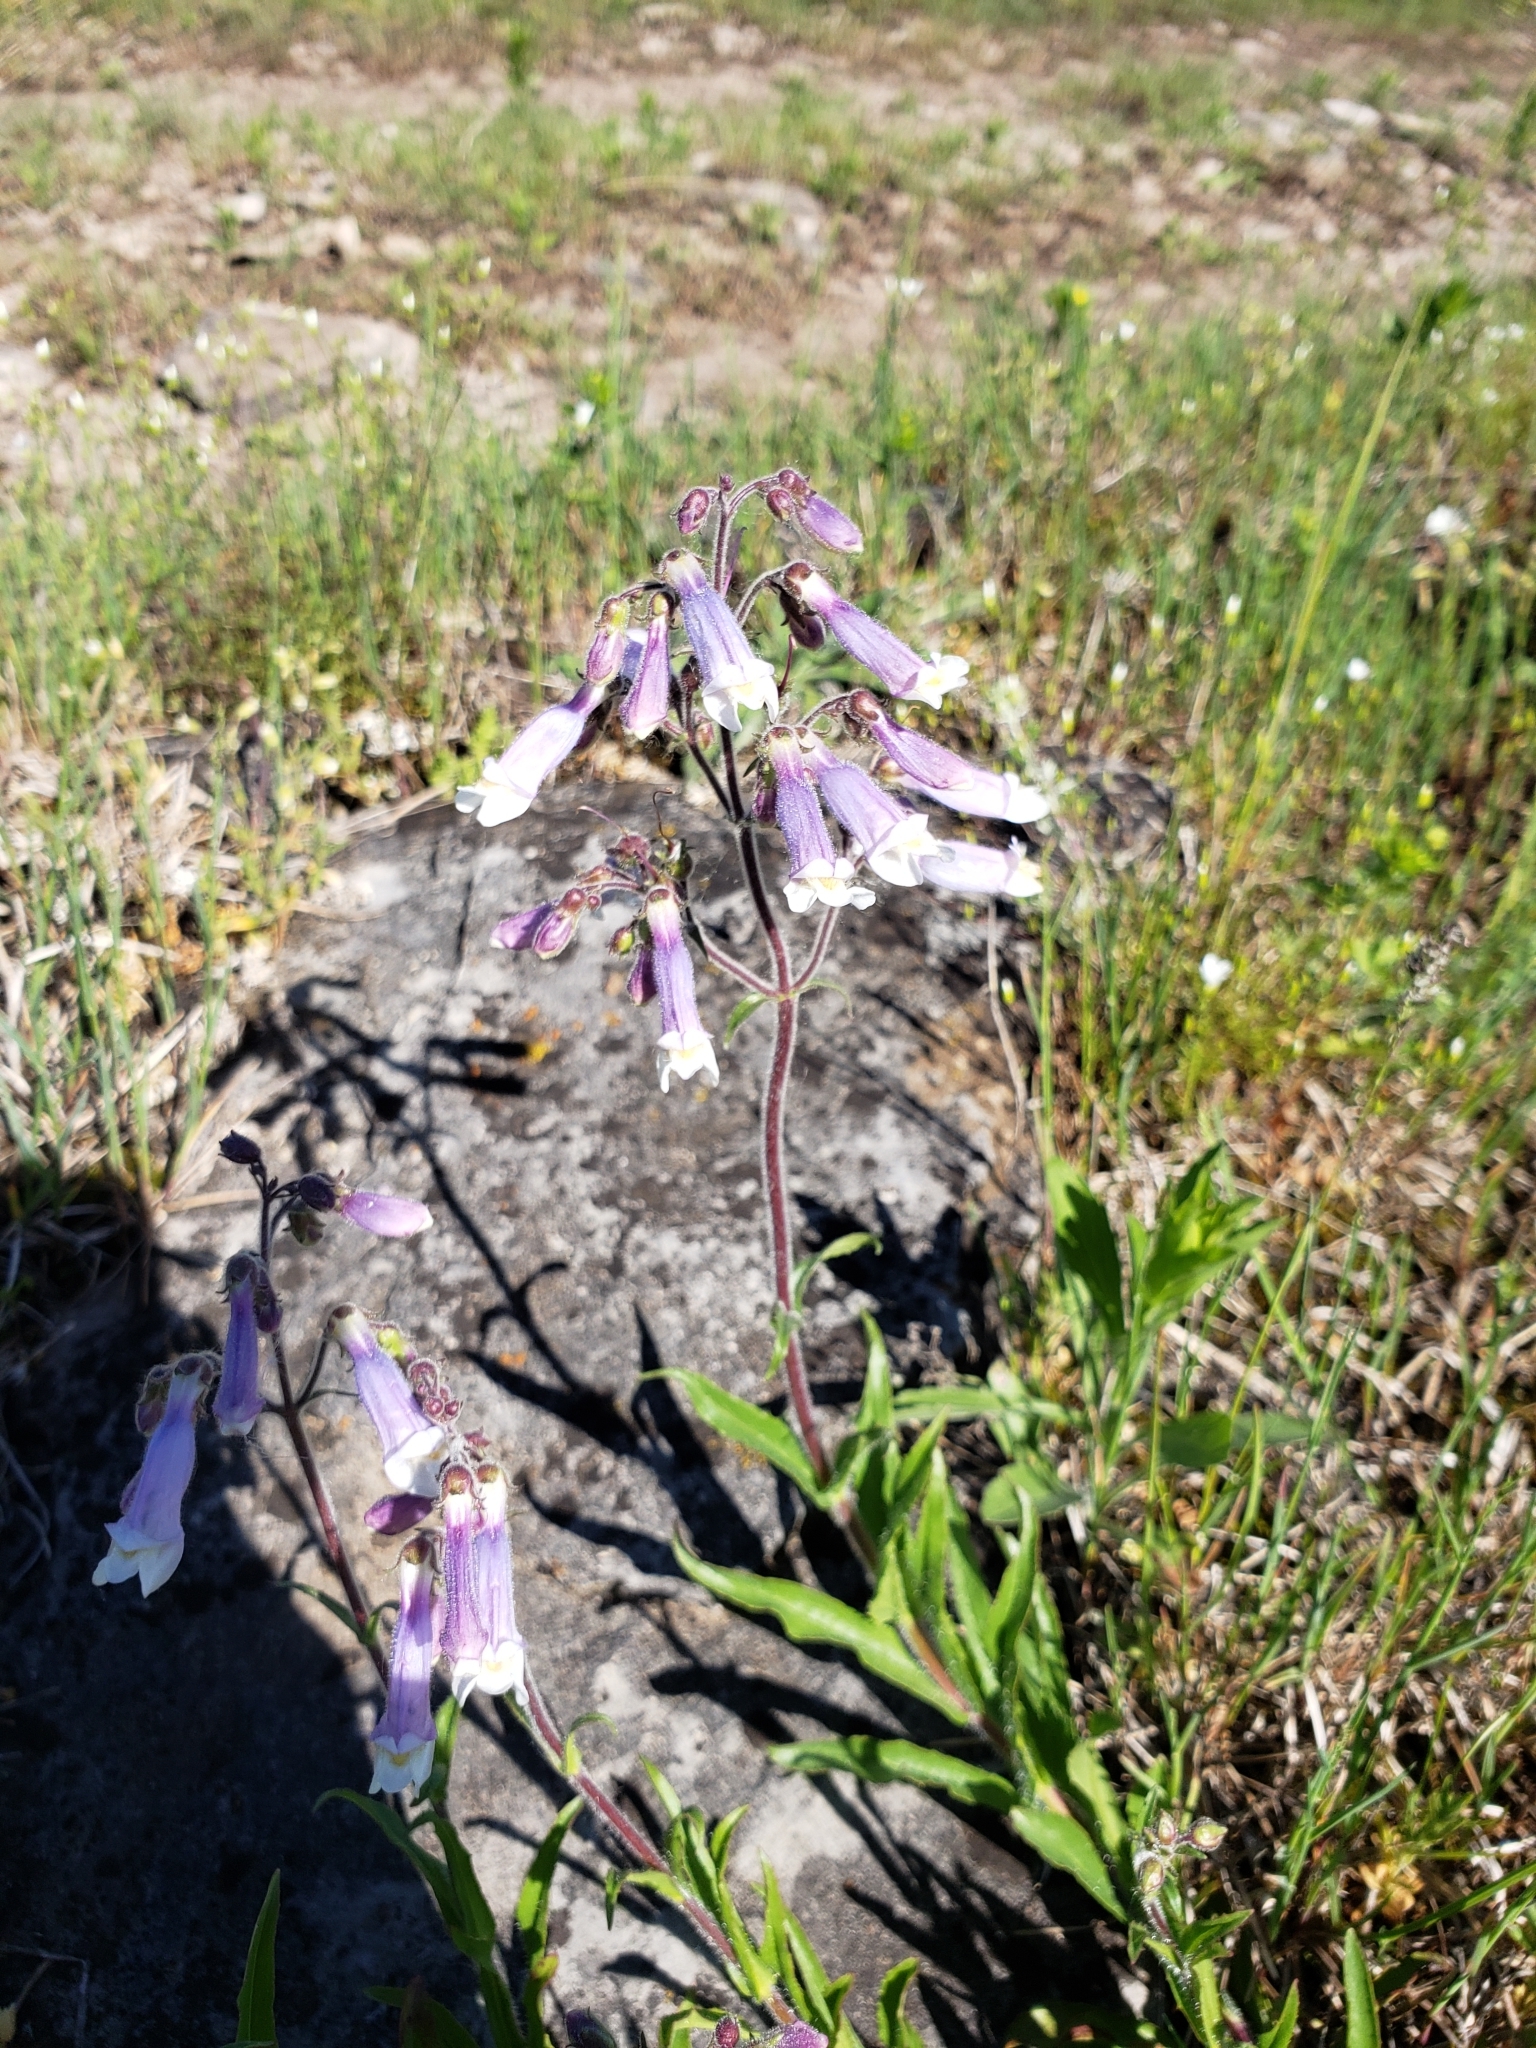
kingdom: Plantae
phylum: Tracheophyta
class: Magnoliopsida
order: Lamiales
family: Plantaginaceae
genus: Penstemon
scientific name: Penstemon hirsutus
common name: Hairy beardtongue
